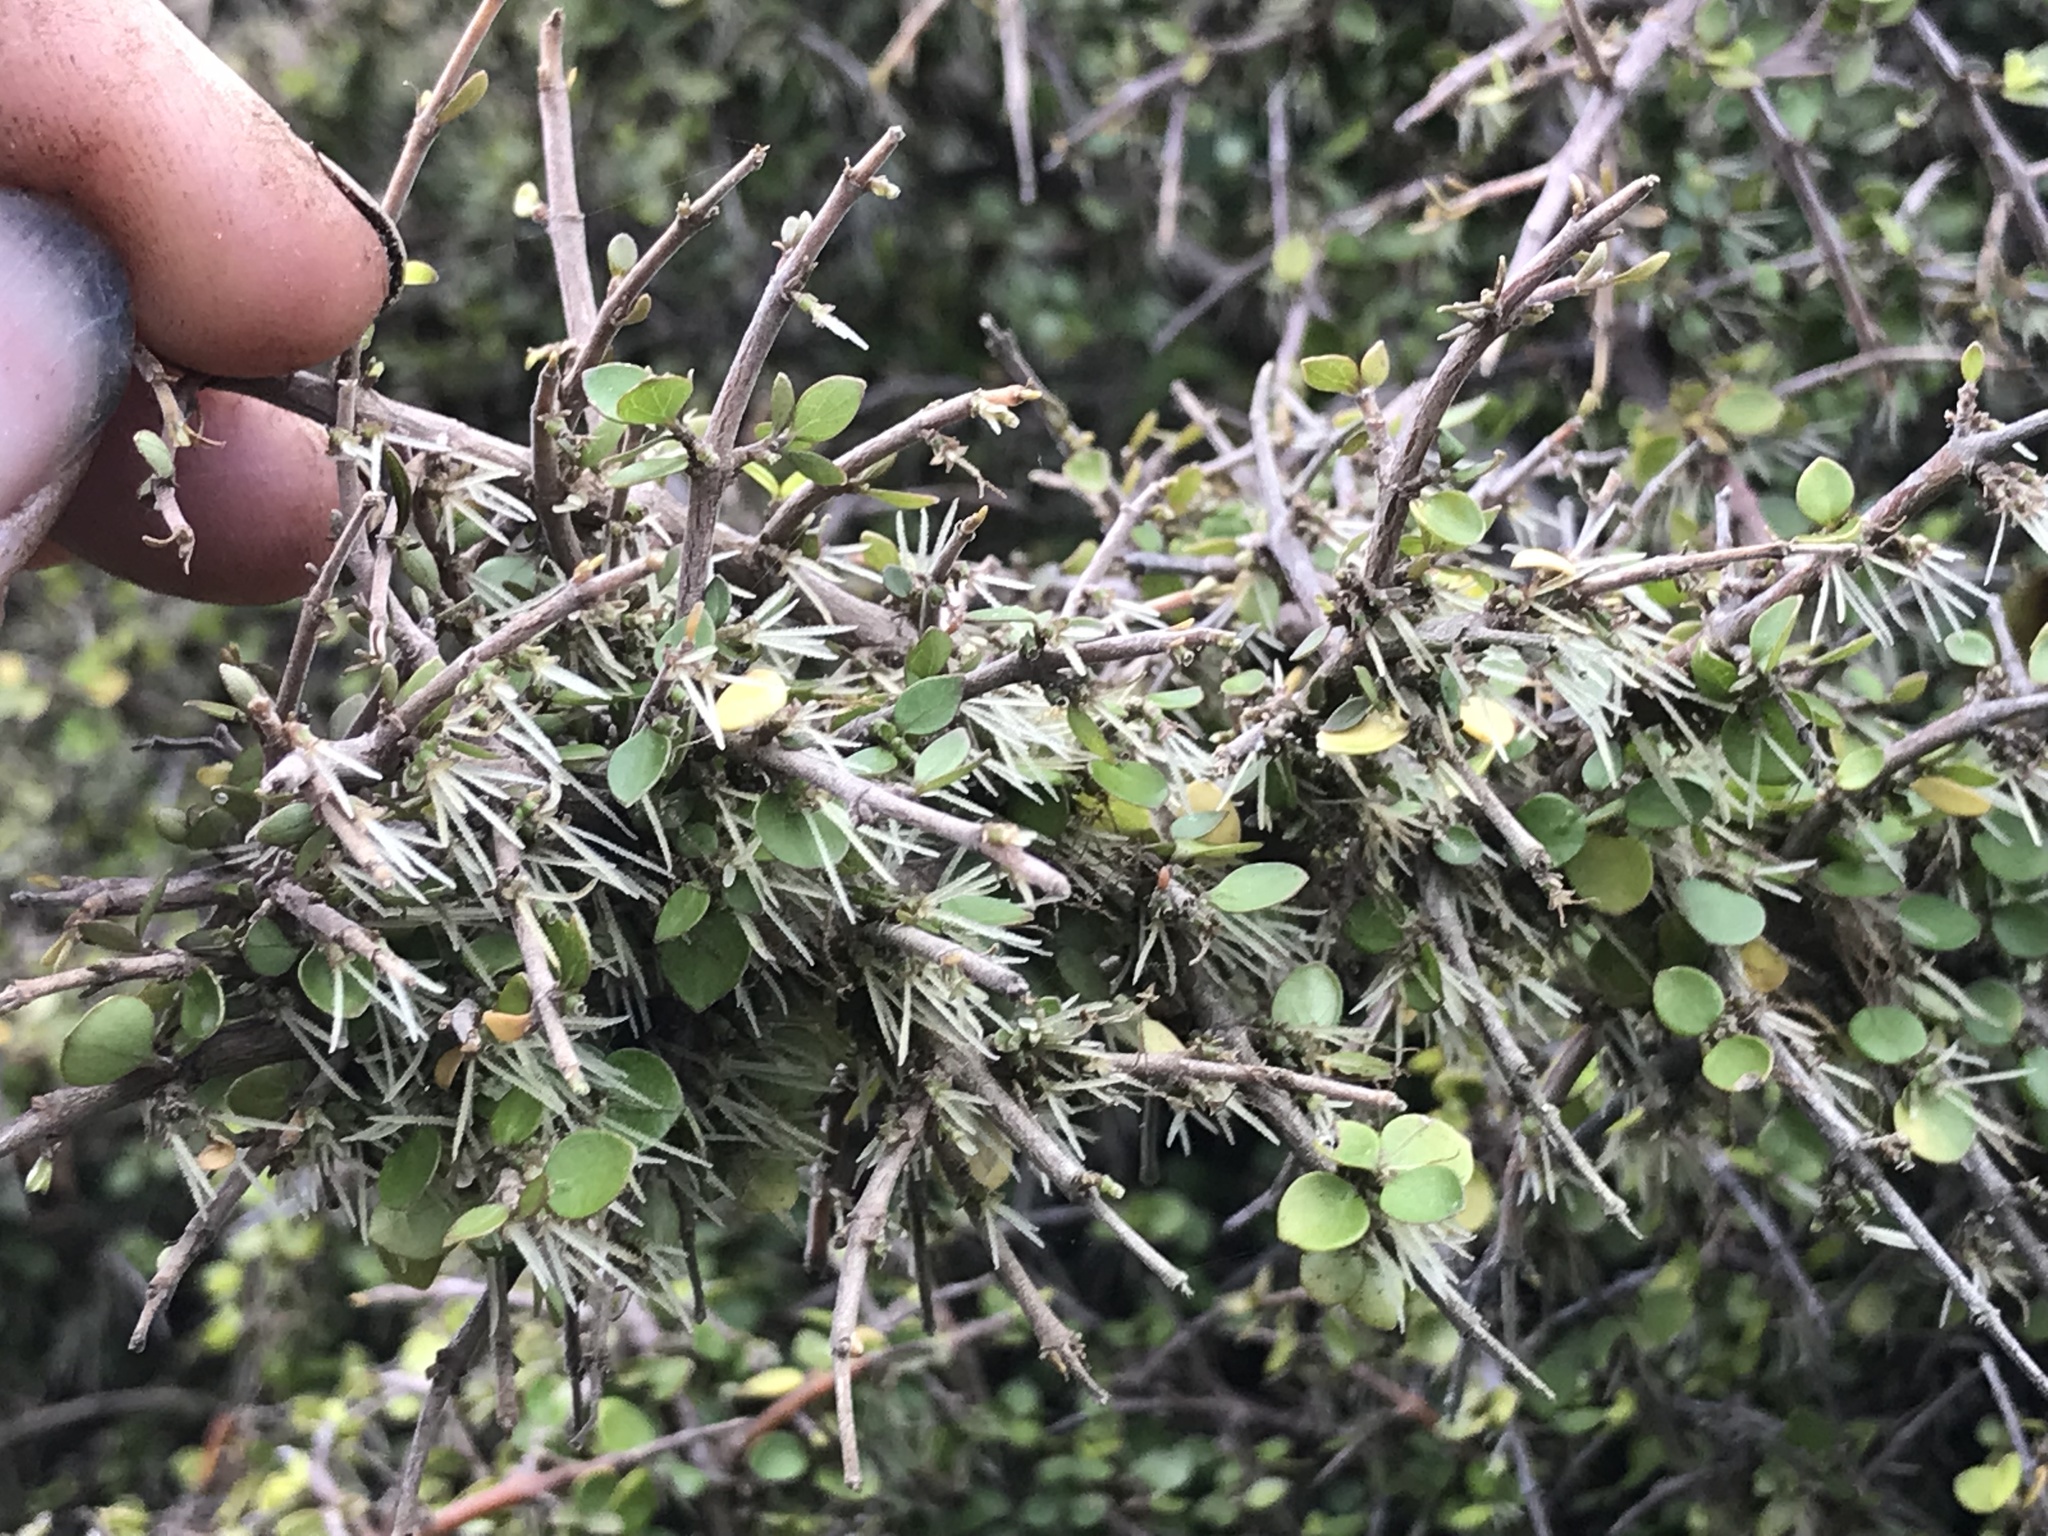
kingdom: Plantae
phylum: Tracheophyta
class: Magnoliopsida
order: Gentianales
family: Rubiaceae
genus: Coprosma
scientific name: Coprosma rhamnoides
